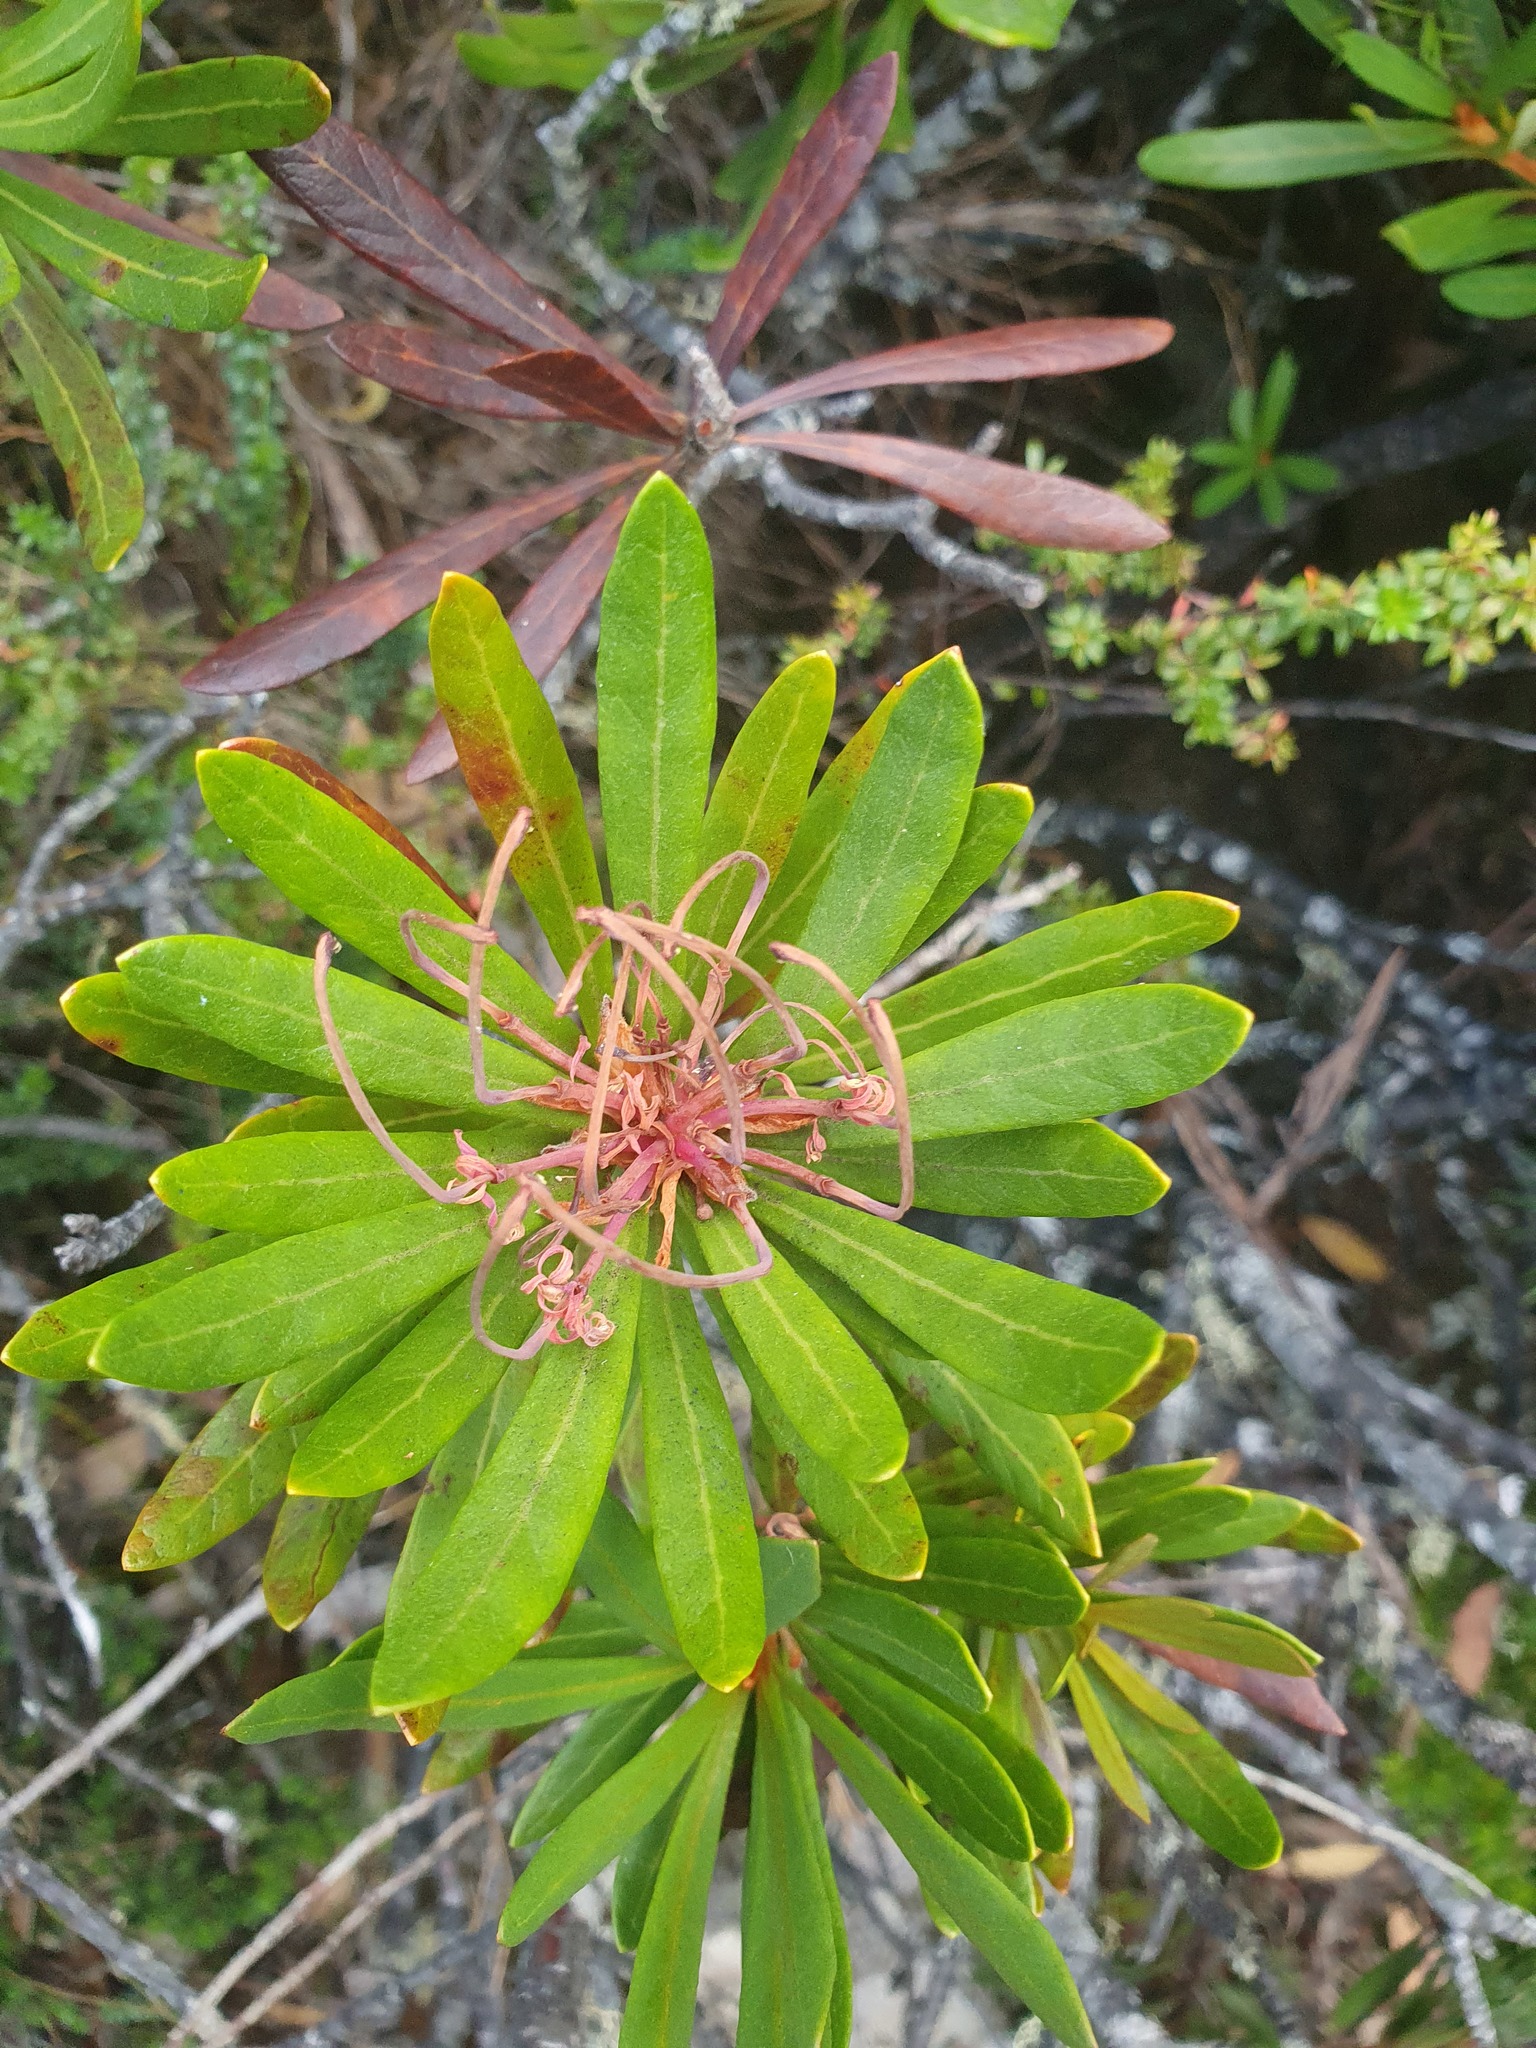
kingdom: Plantae
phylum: Tracheophyta
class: Magnoliopsida
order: Proteales
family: Proteaceae
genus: Telopea
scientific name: Telopea truncata
